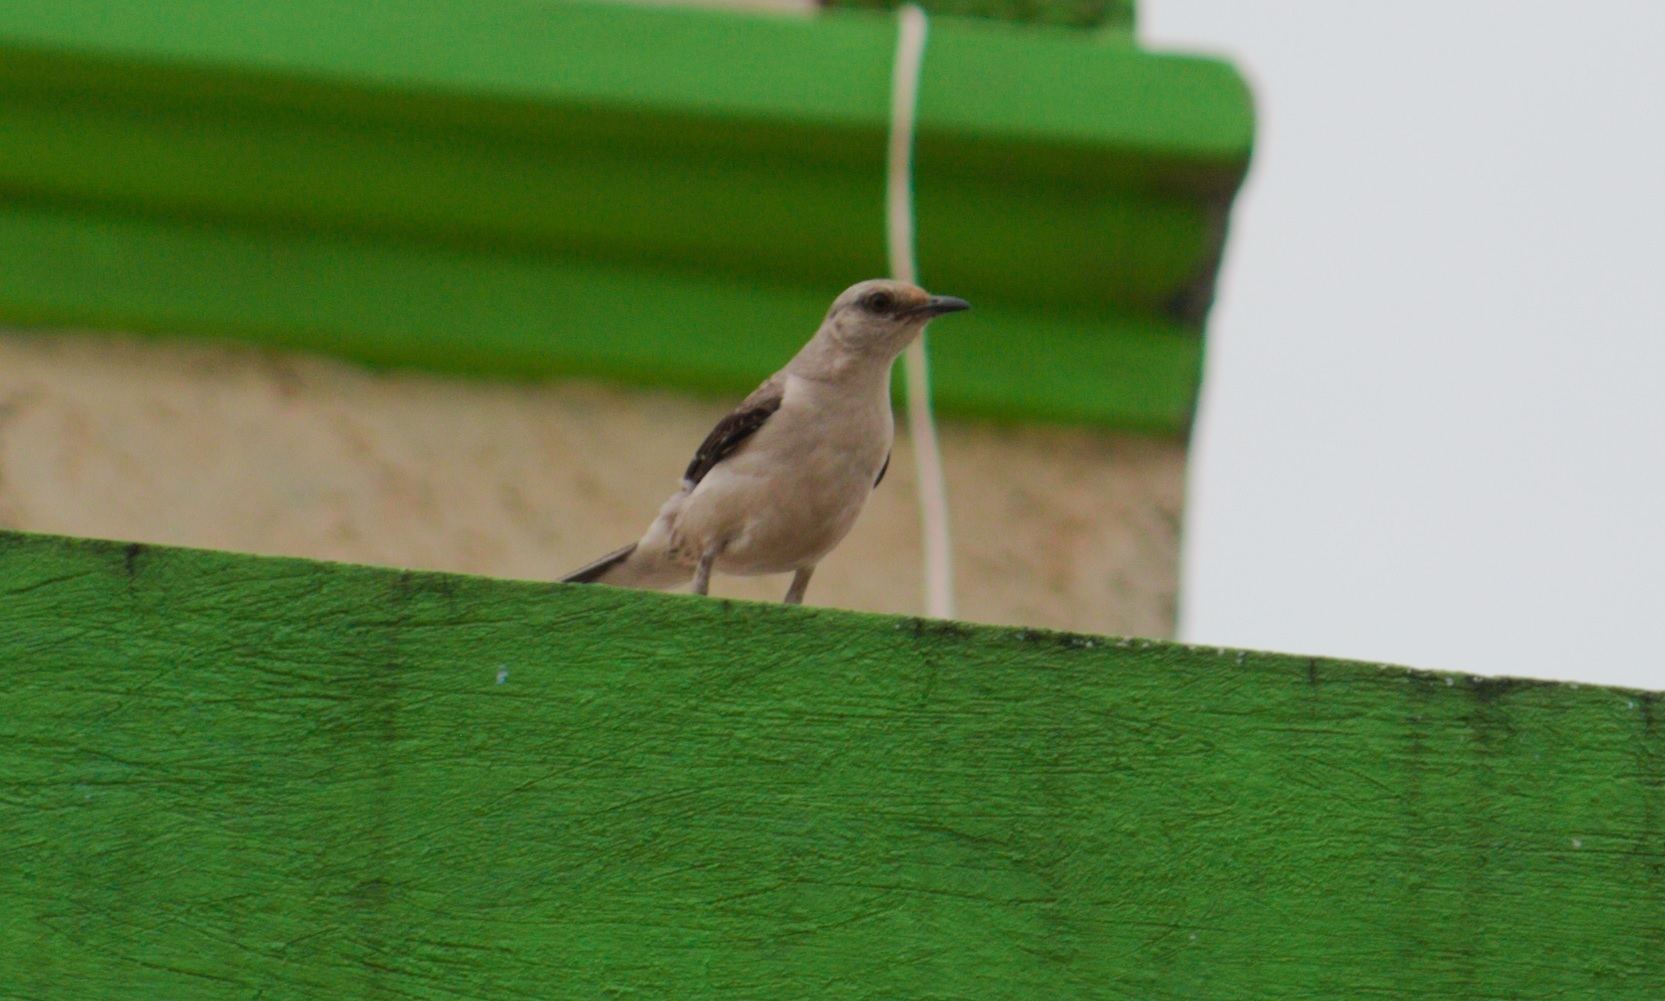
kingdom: Animalia
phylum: Chordata
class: Aves
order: Passeriformes
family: Mimidae
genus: Mimus
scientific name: Mimus gilvus
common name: Tropical mockingbird
